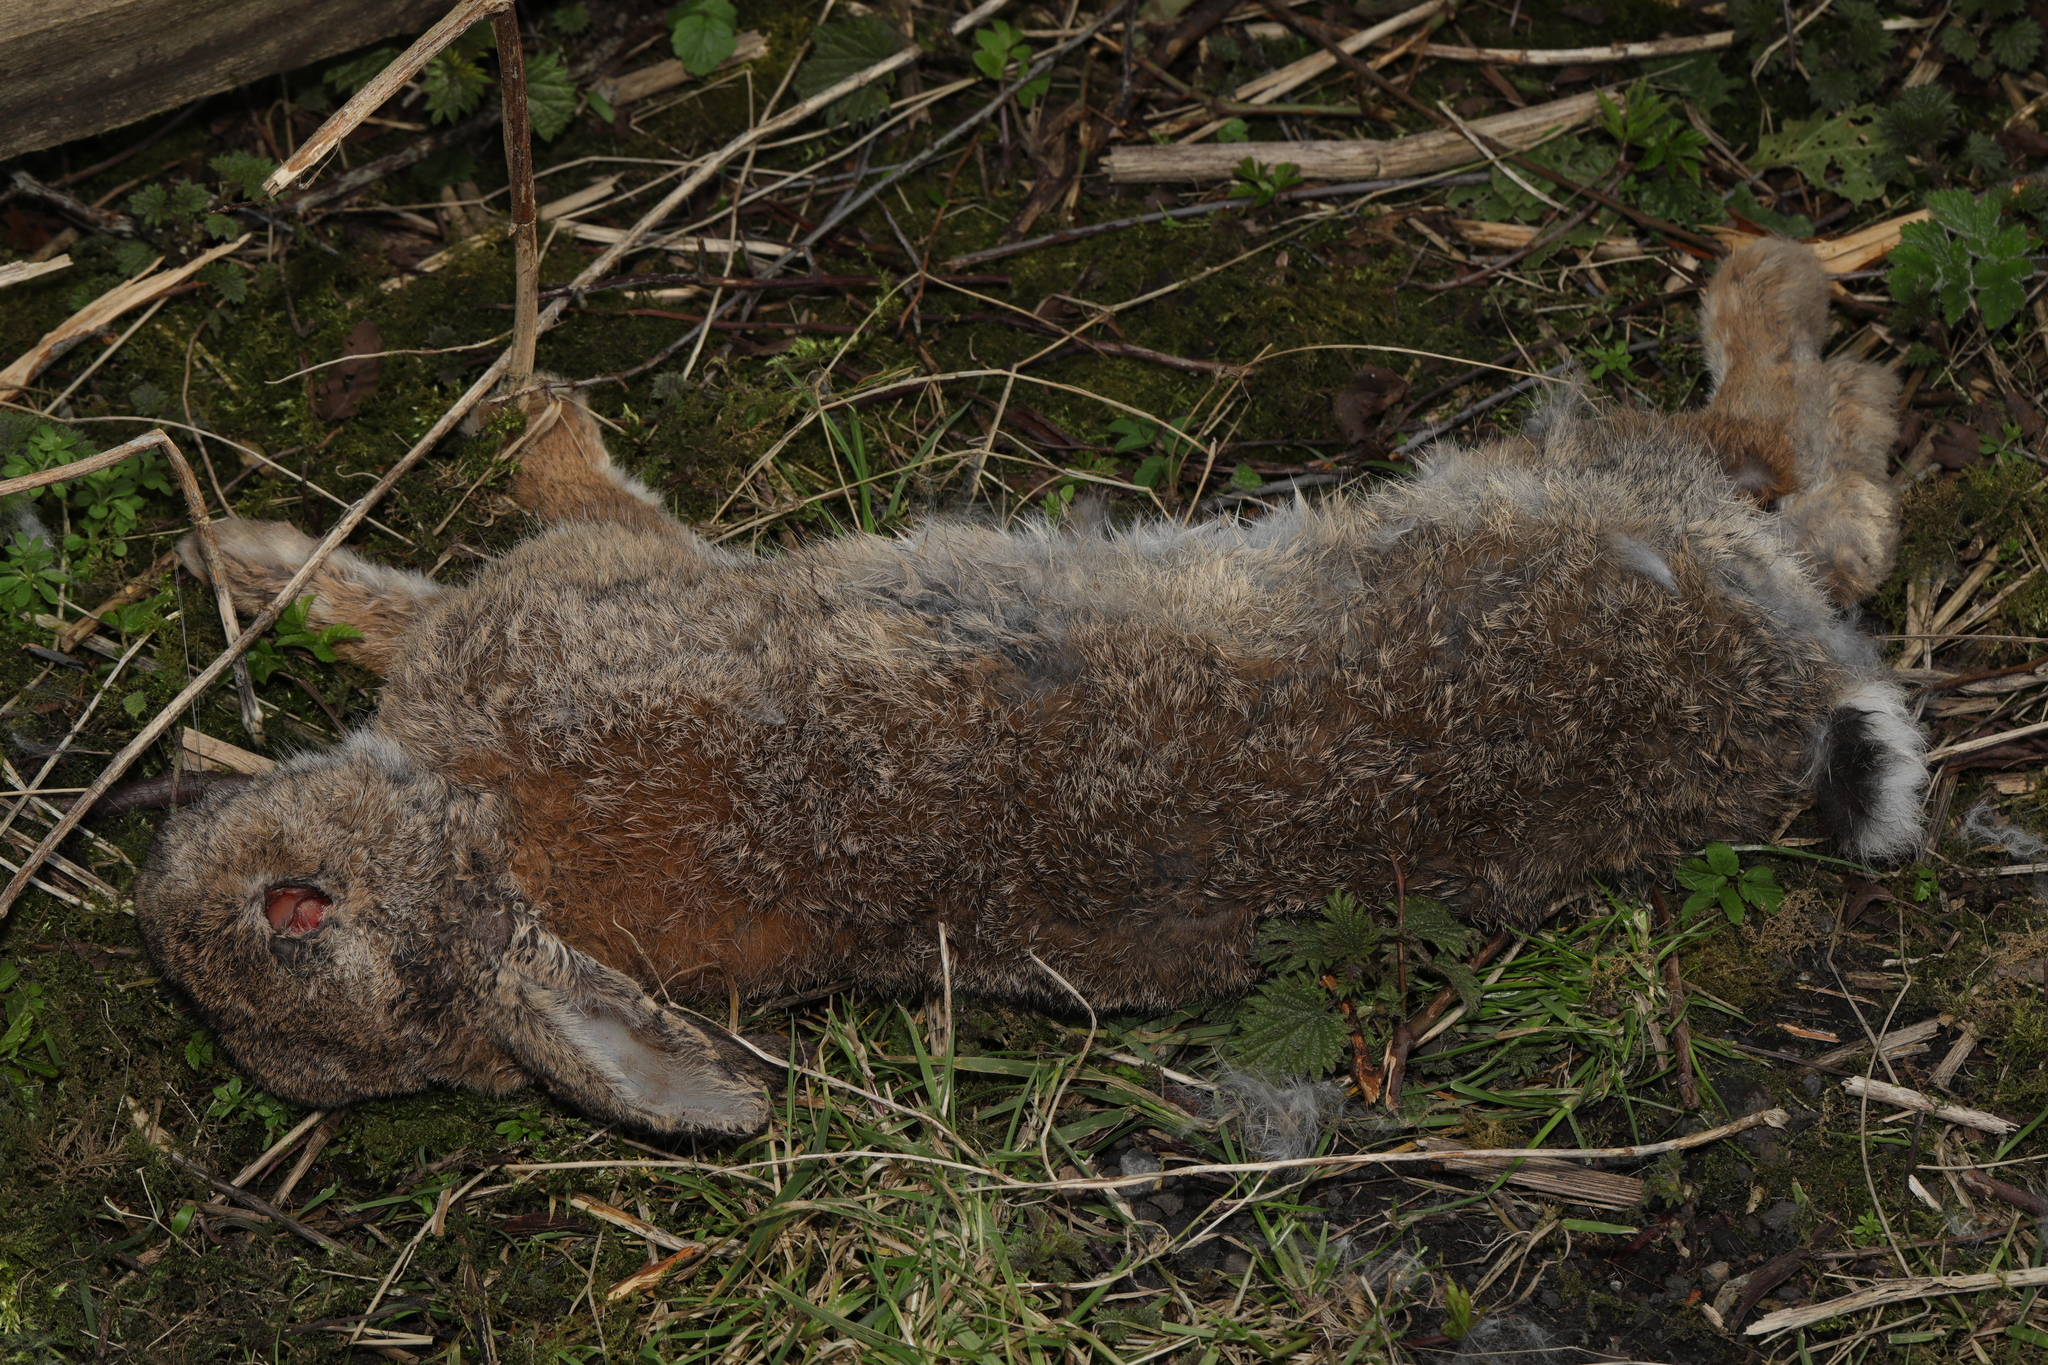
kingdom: Animalia
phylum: Chordata
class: Mammalia
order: Lagomorpha
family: Leporidae
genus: Oryctolagus
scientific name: Oryctolagus cuniculus
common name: European rabbit
